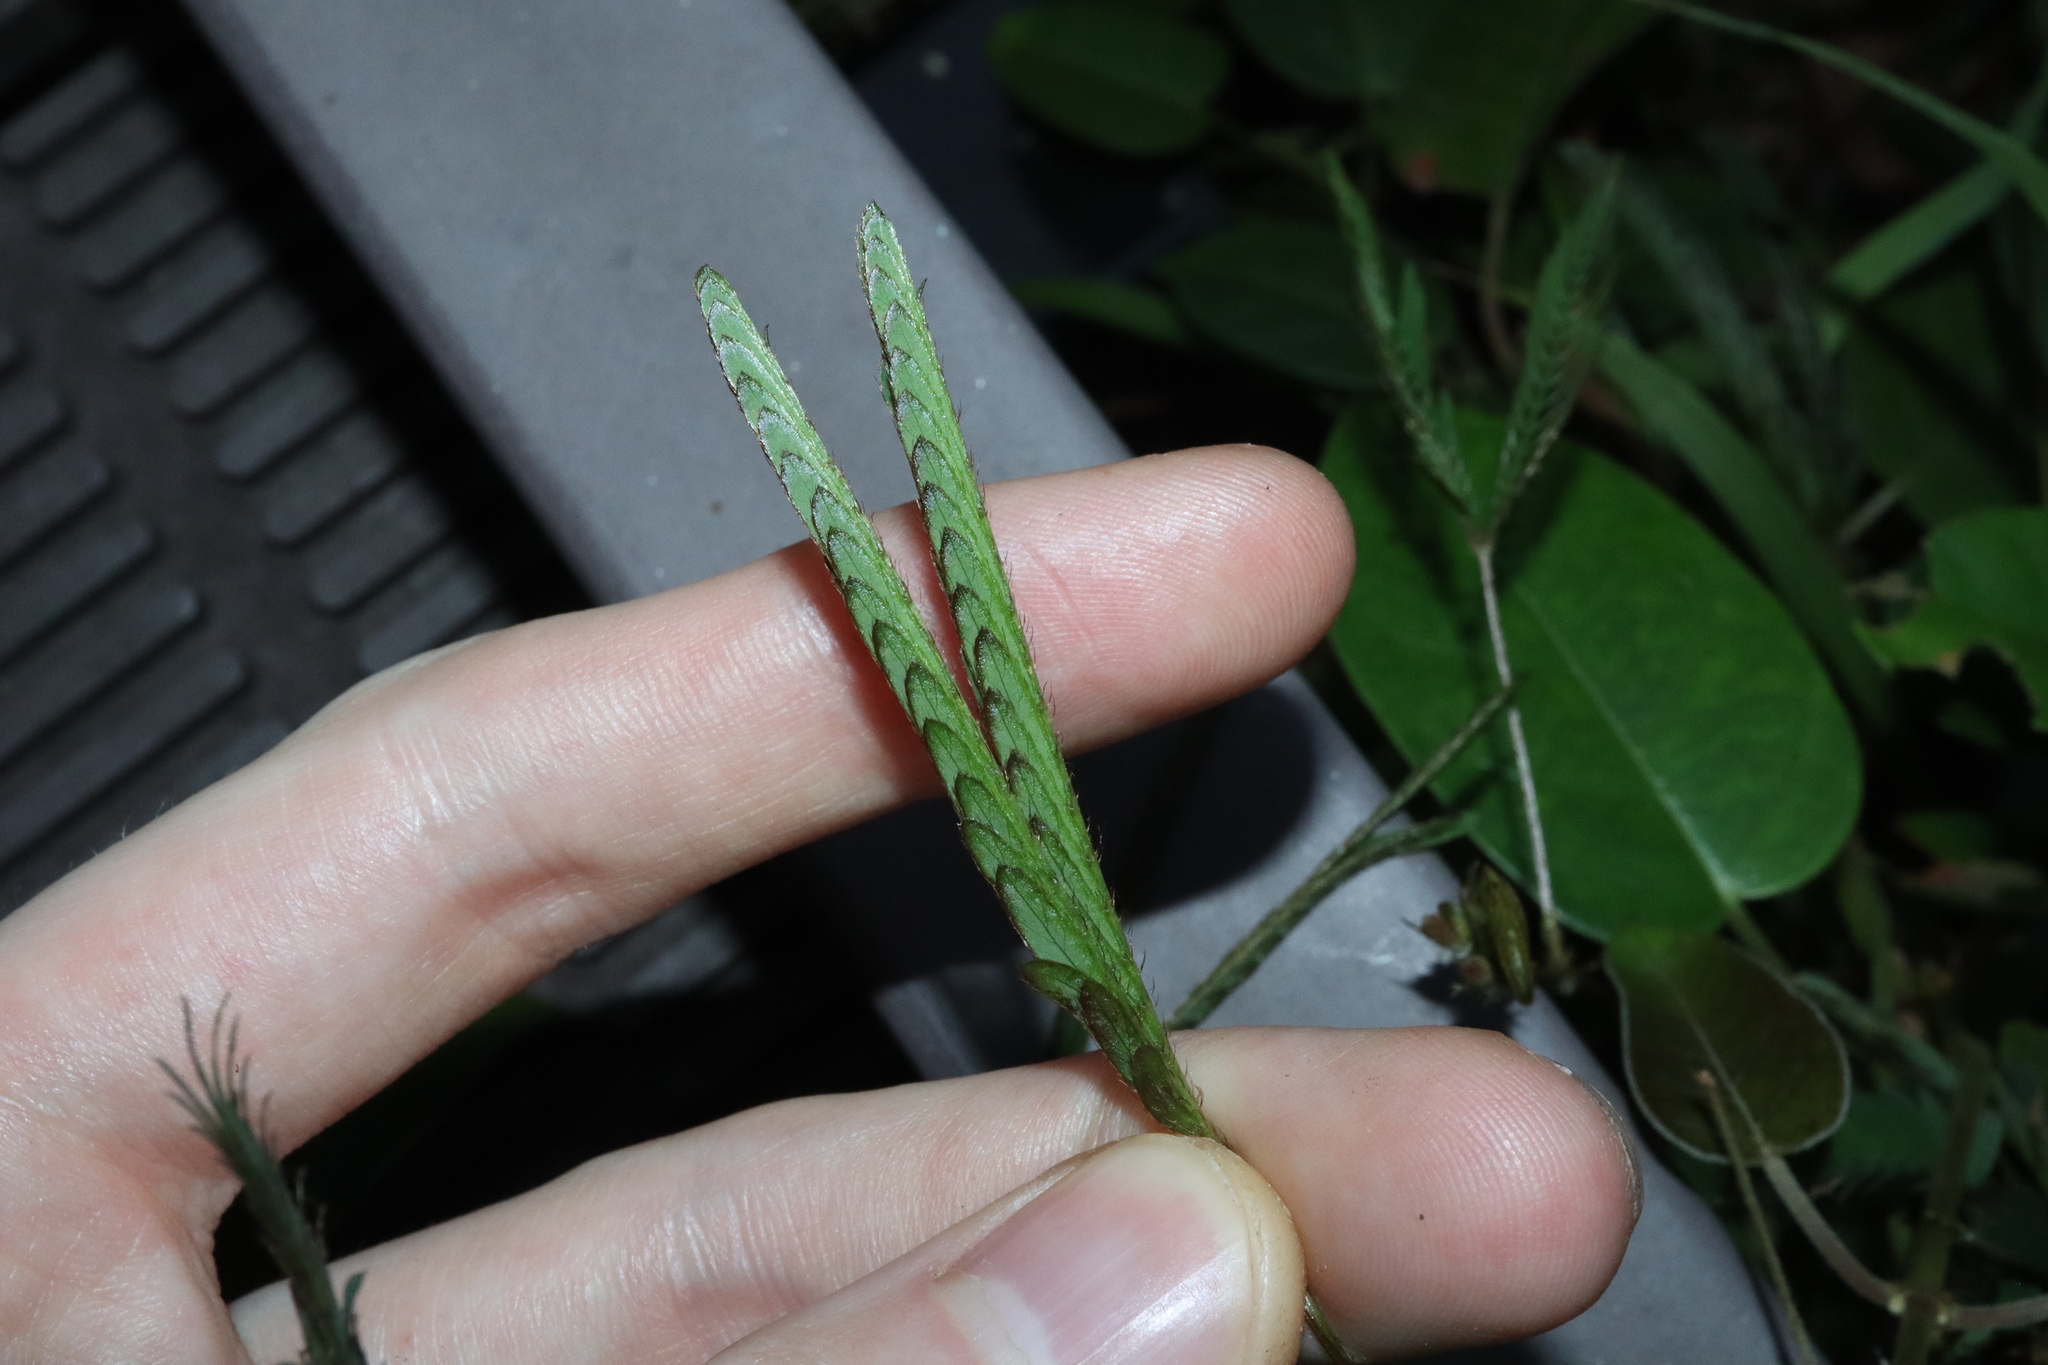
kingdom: Plantae
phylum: Tracheophyta
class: Magnoliopsida
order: Fabales
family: Fabaceae
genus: Mimosa
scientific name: Mimosa pudica
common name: Sensitive plant
